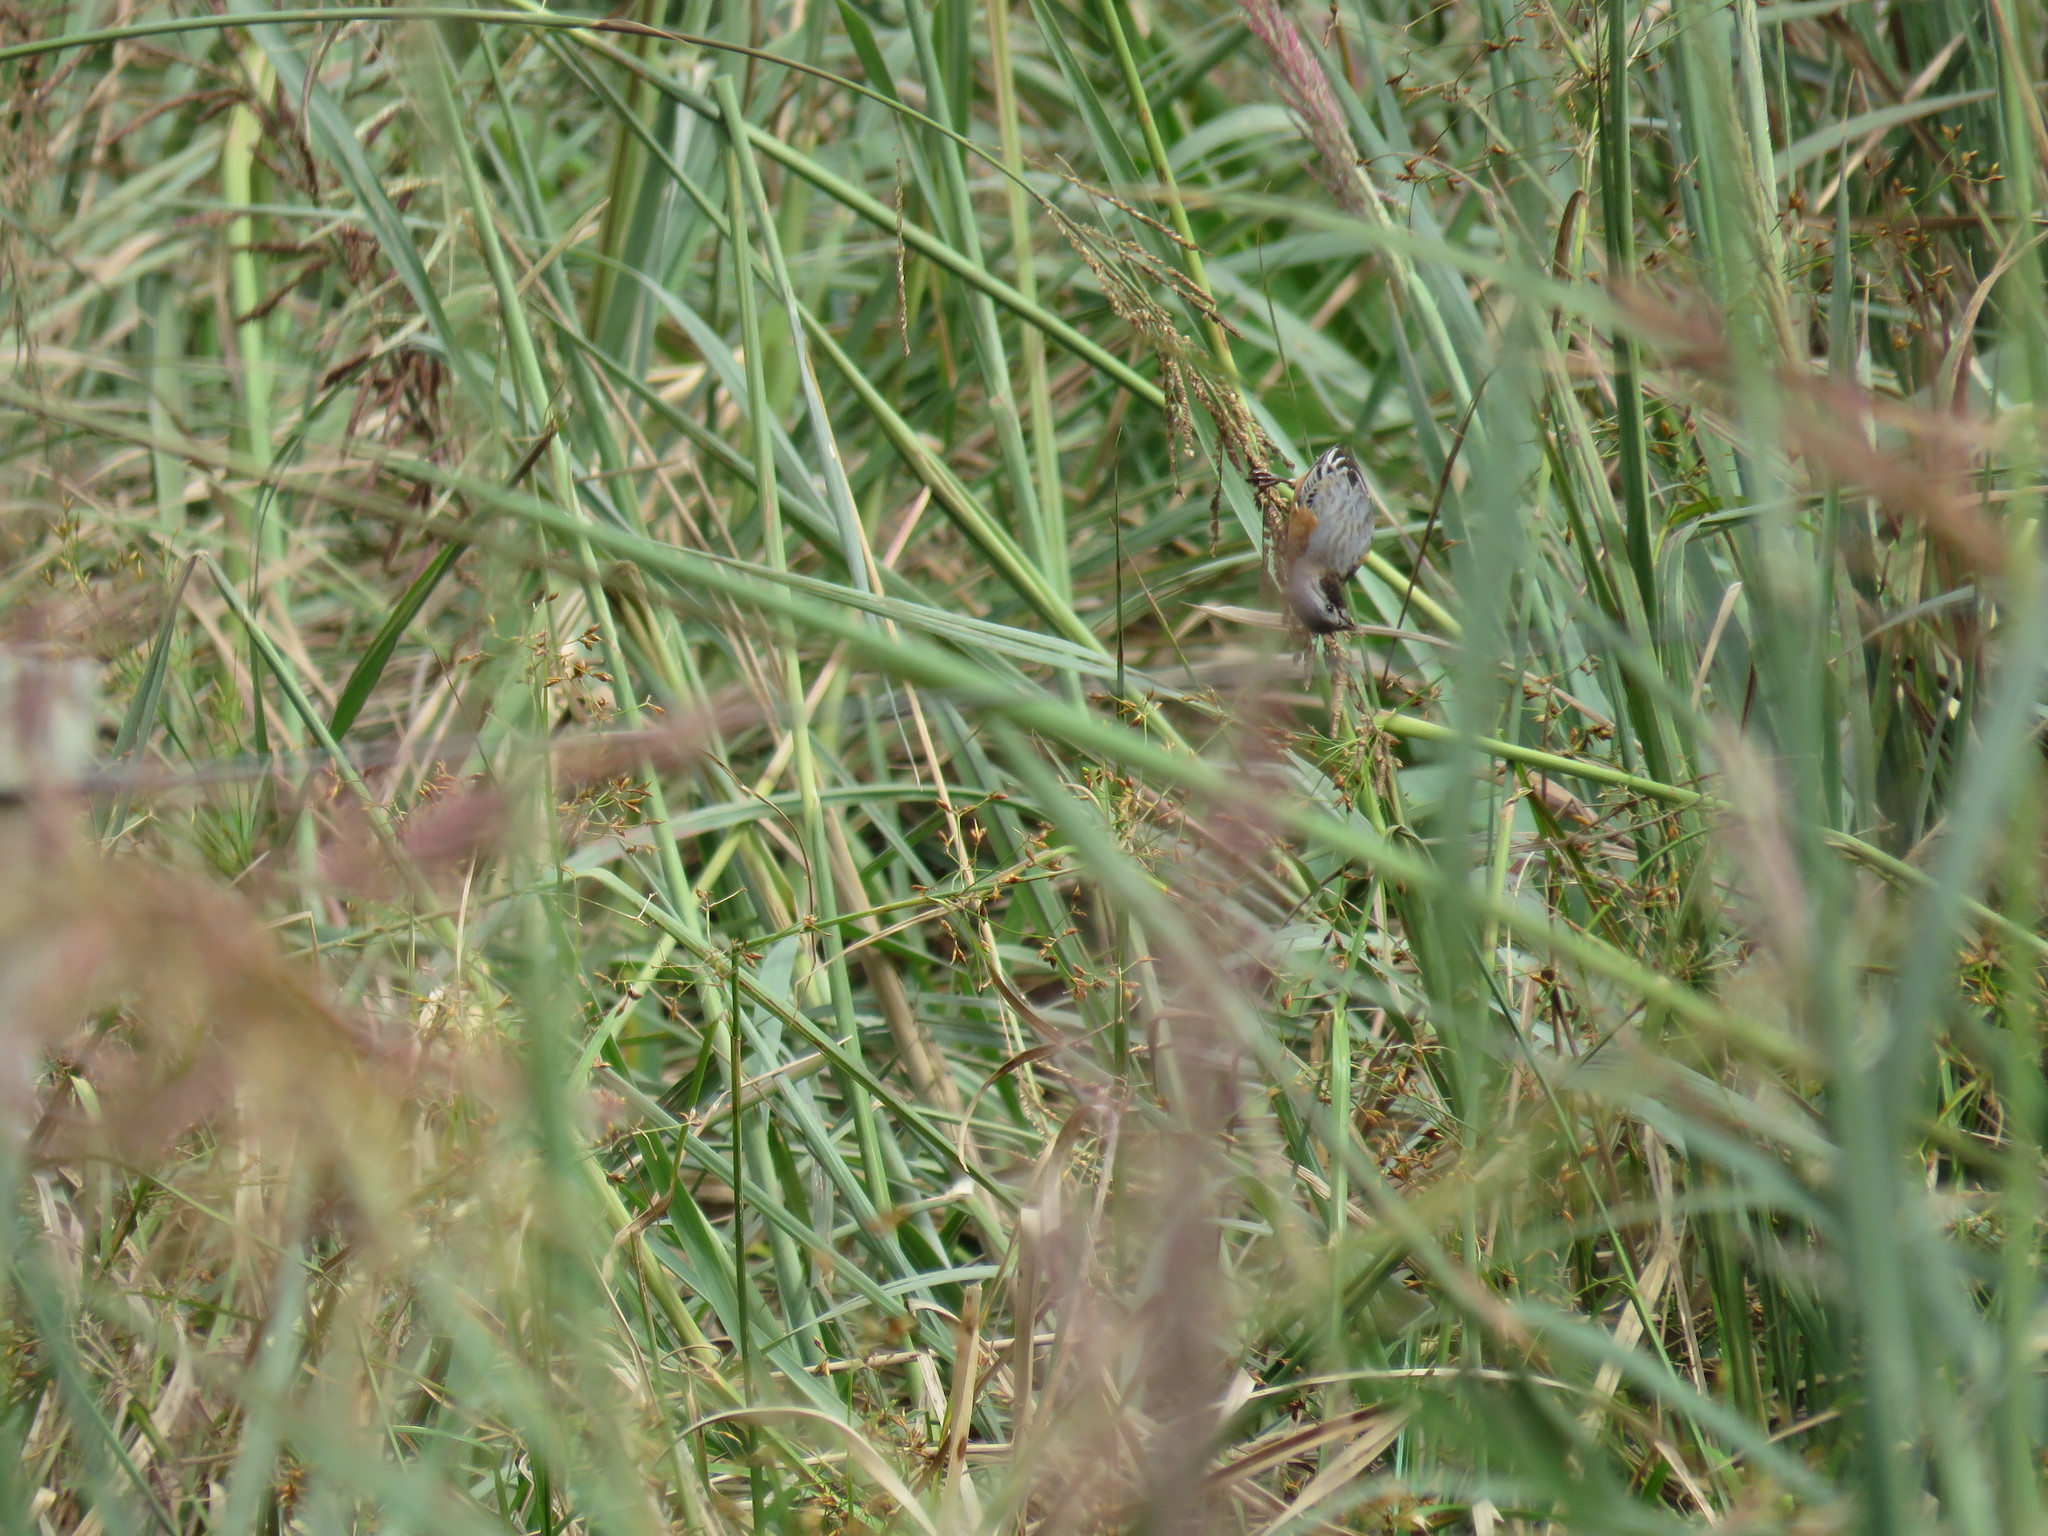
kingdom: Animalia
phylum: Chordata
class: Aves
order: Passeriformes
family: Thraupidae
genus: Sporophila
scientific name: Sporophila ruficollis
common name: Dark-throated seedeater
